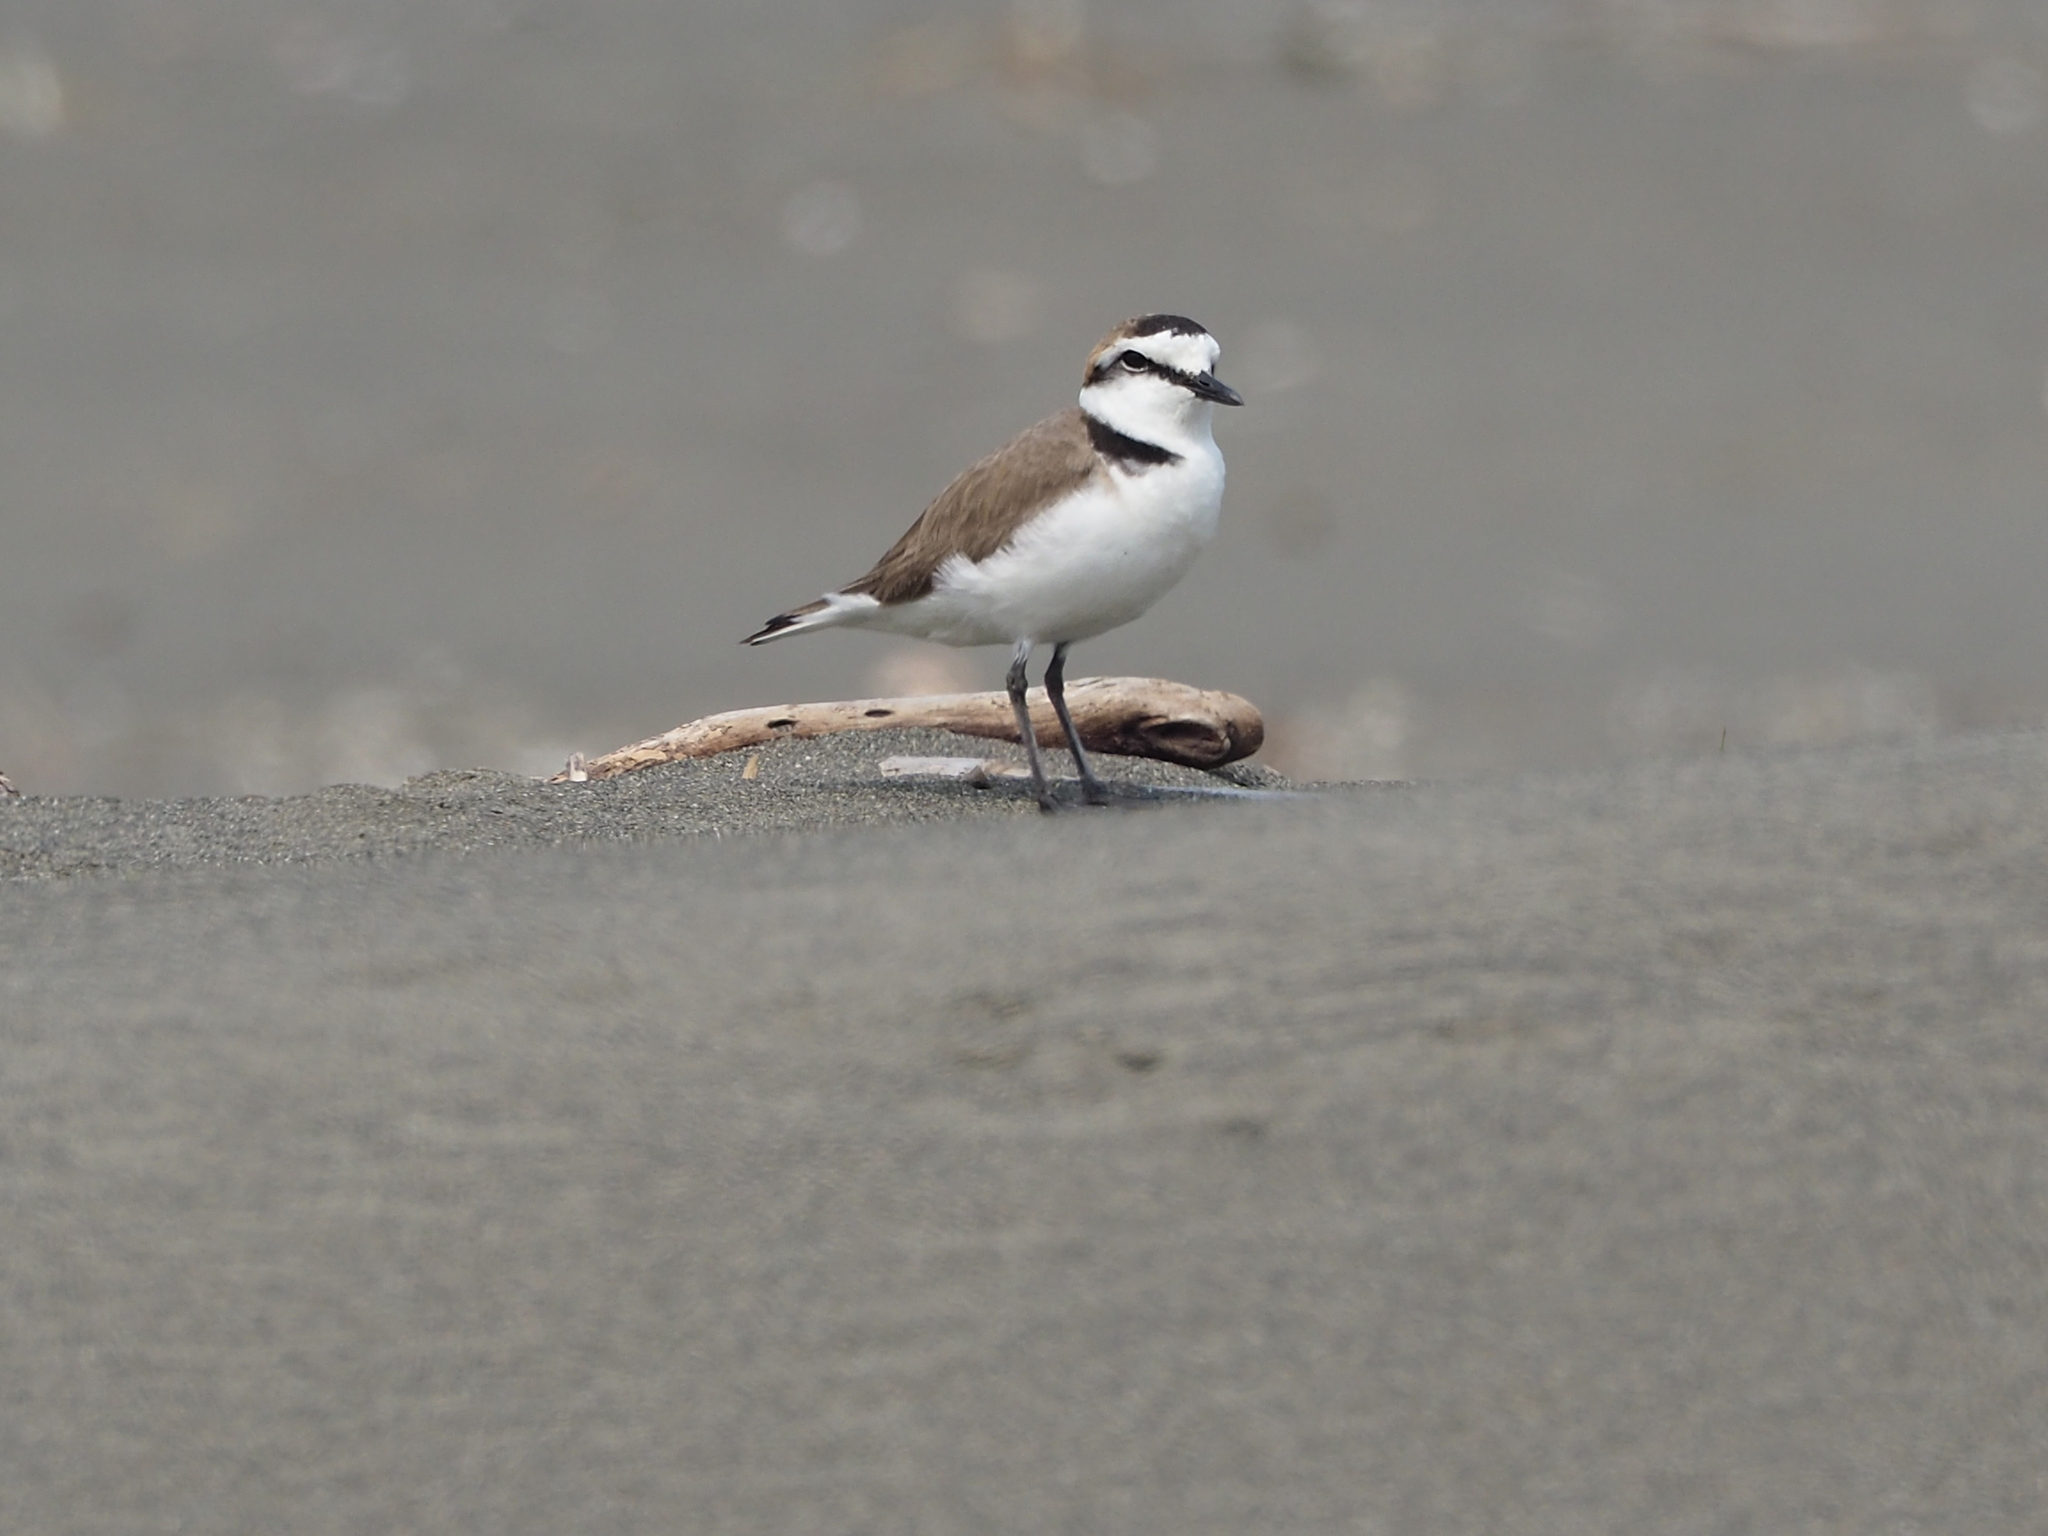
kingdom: Animalia
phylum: Chordata
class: Aves
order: Charadriiformes
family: Charadriidae
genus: Charadrius
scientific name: Charadrius alexandrinus
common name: Kentish plover
